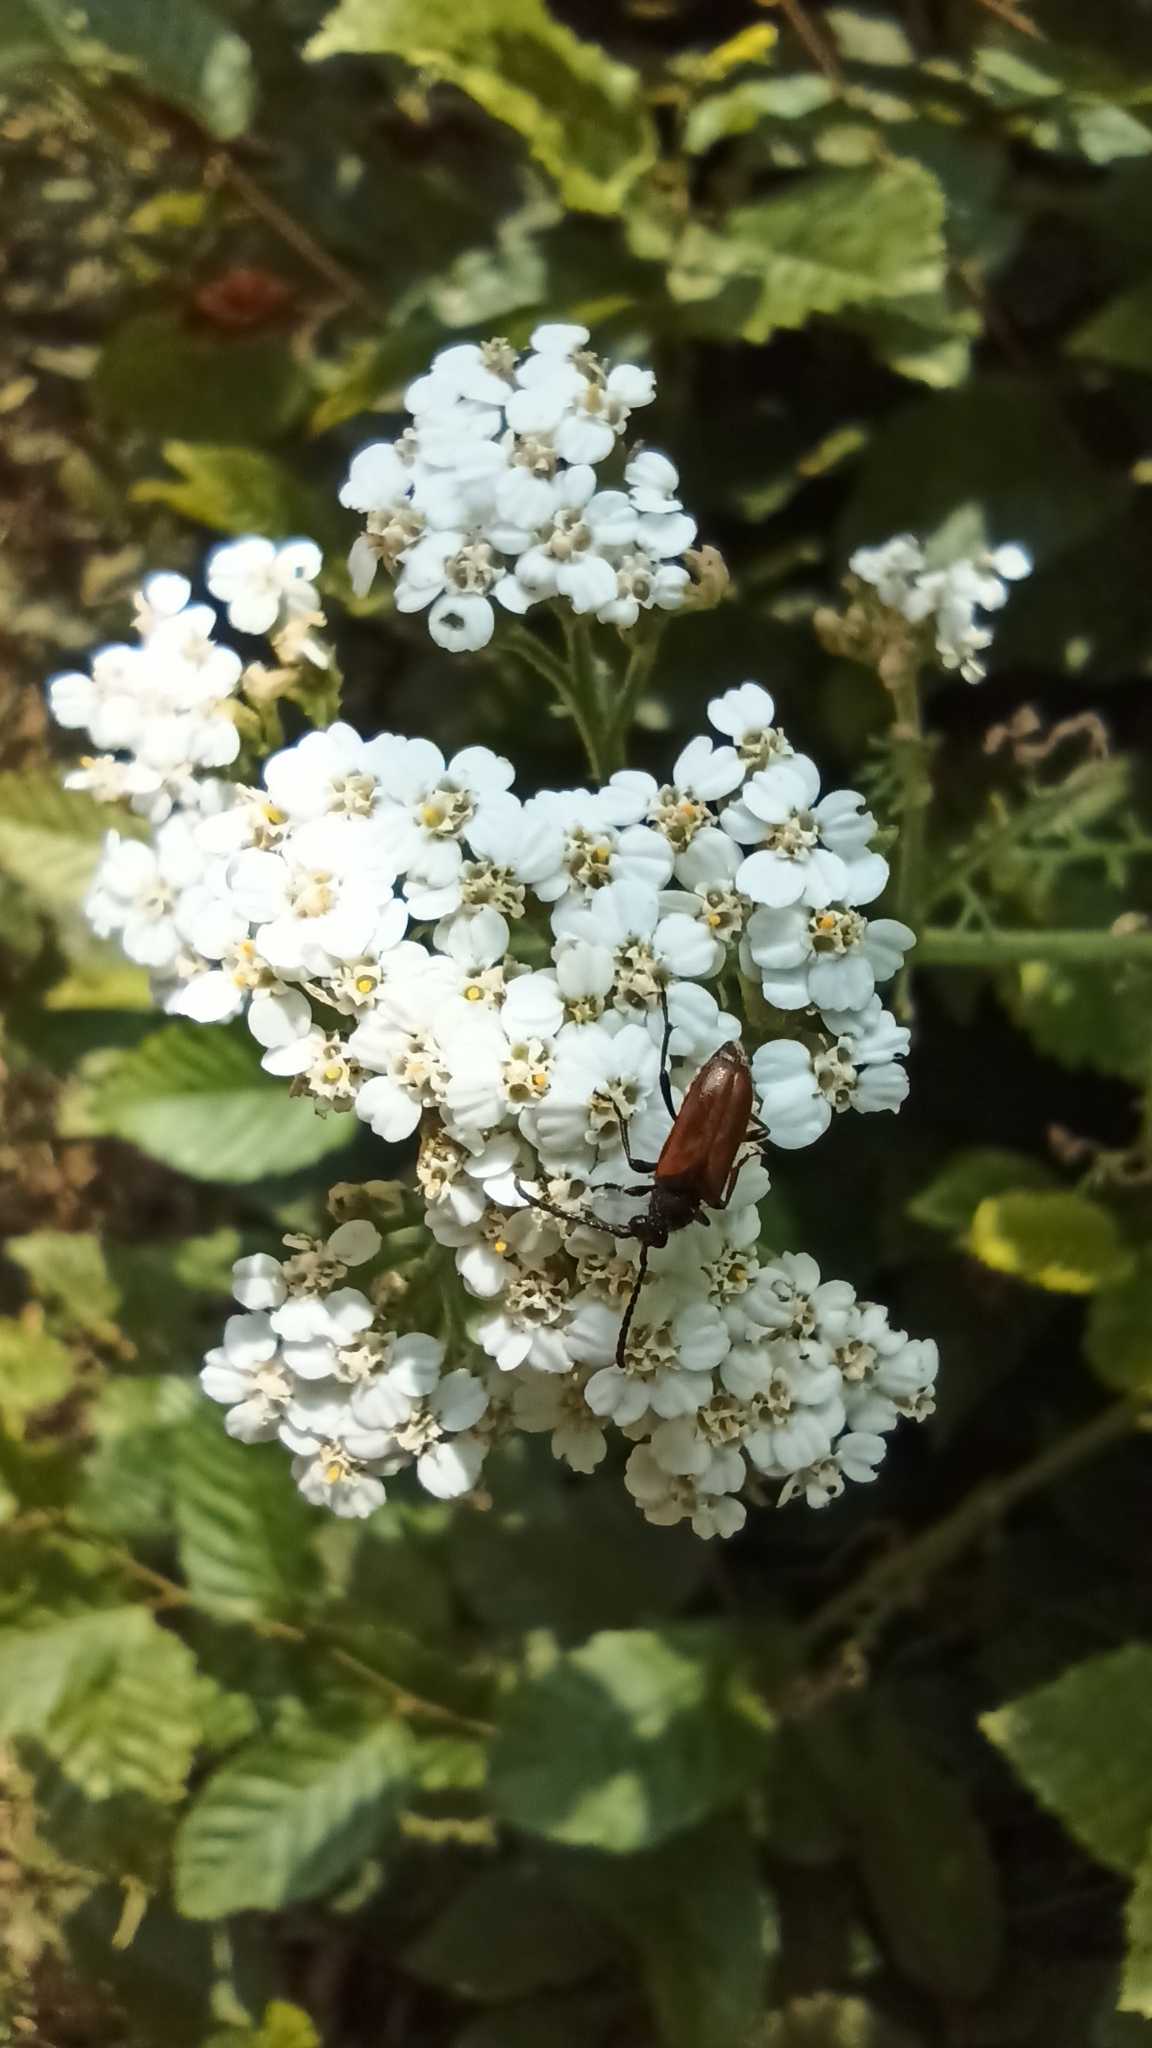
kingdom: Animalia
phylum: Arthropoda
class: Insecta
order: Coleoptera
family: Cerambycidae
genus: Pseudovadonia
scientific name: Pseudovadonia livida
